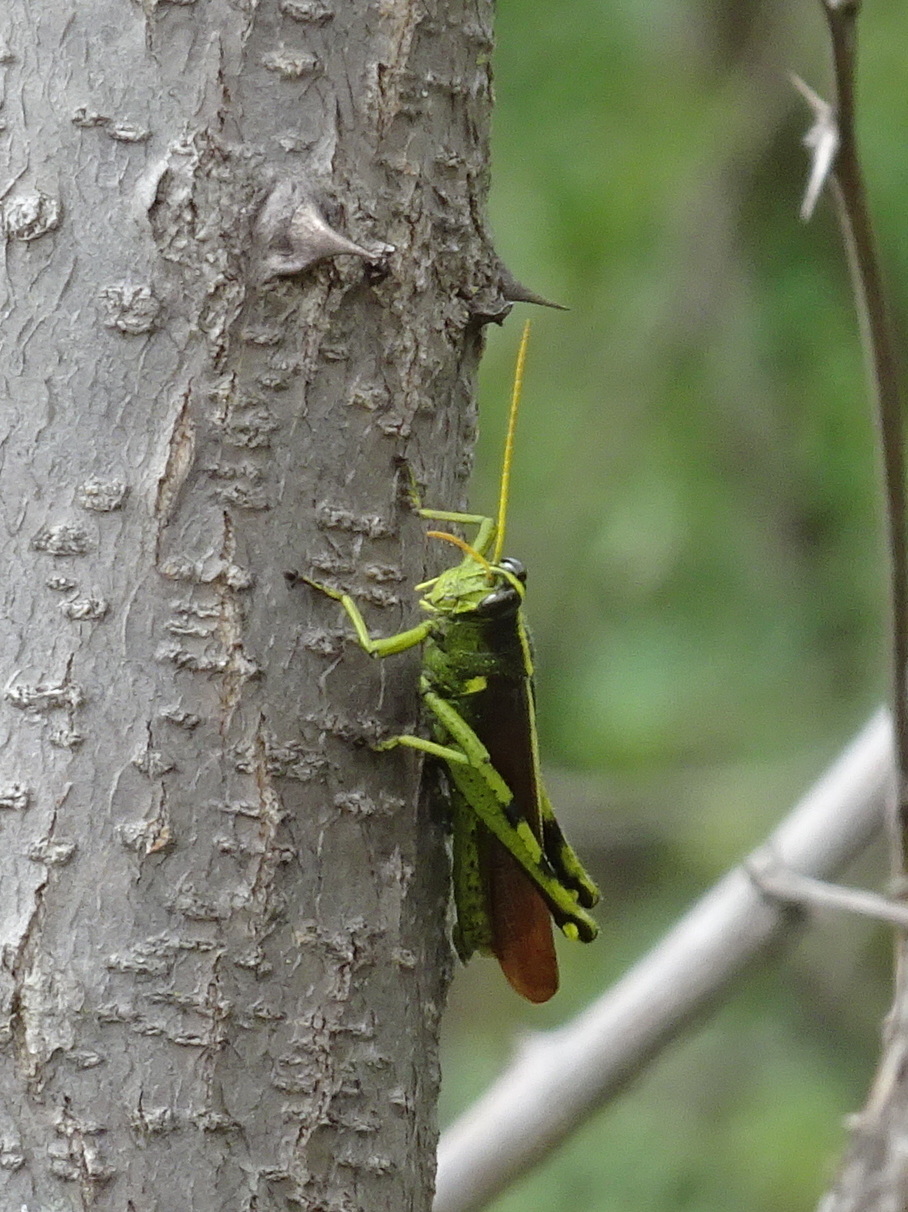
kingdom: Animalia
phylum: Arthropoda
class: Insecta
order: Orthoptera
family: Acrididae
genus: Schistocerca
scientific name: Schistocerca obscura
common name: Obscure bird grasshopper
